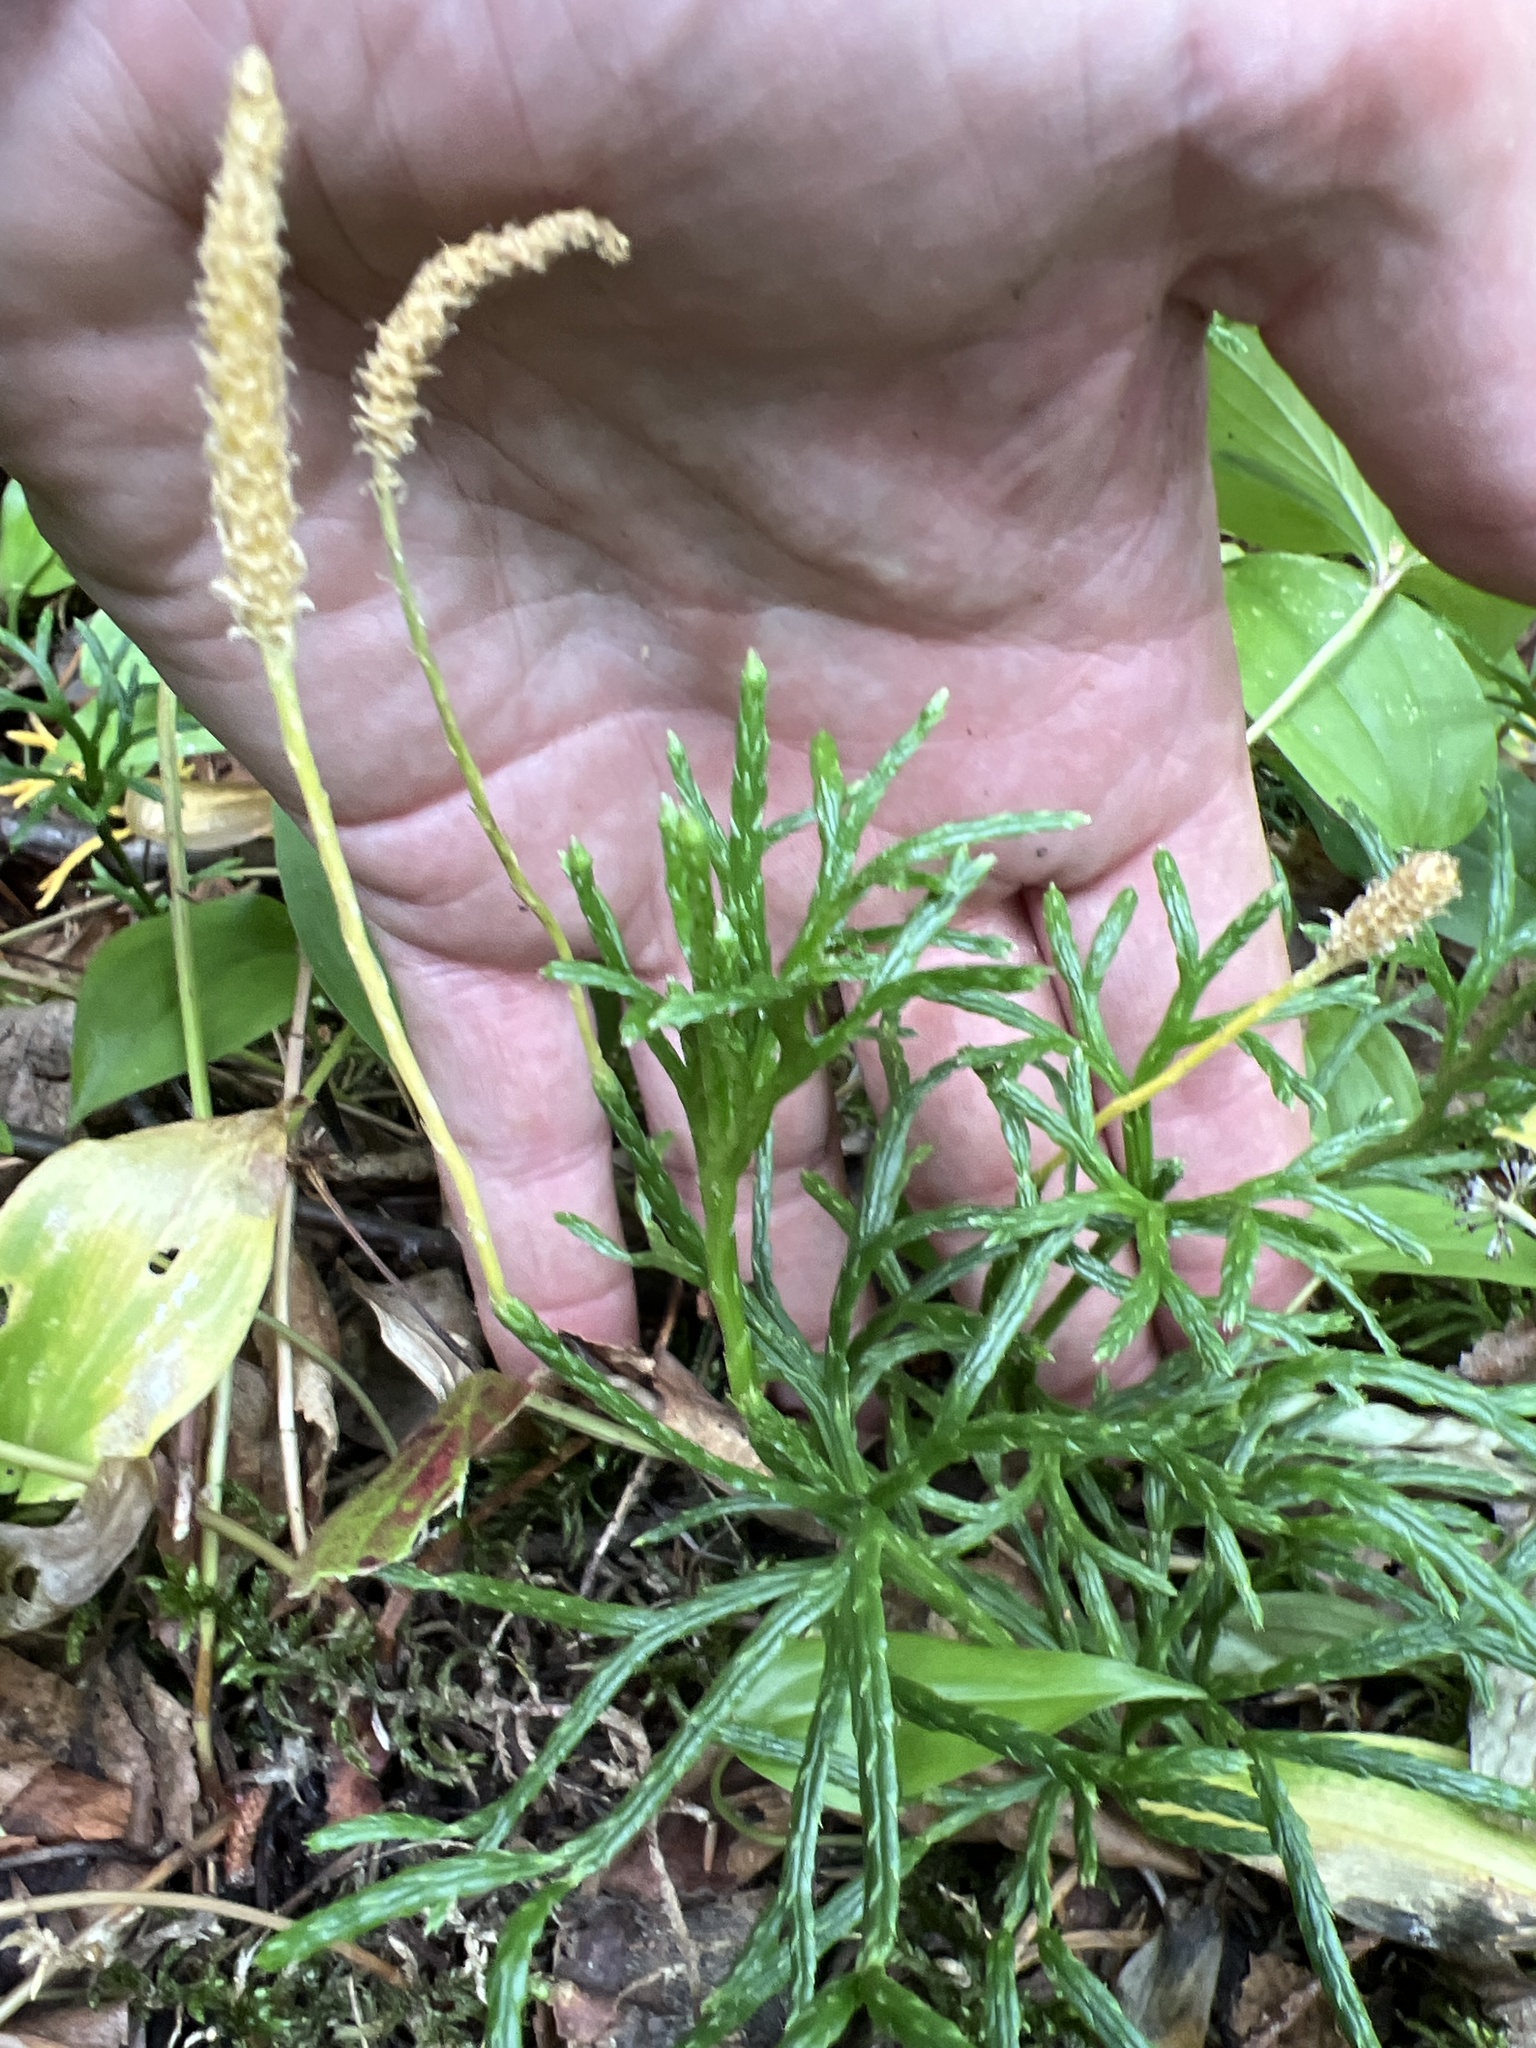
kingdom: Plantae
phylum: Tracheophyta
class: Lycopodiopsida
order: Lycopodiales
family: Lycopodiaceae
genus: Diphasiastrum
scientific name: Diphasiastrum complanatum
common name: Northern running-pine
